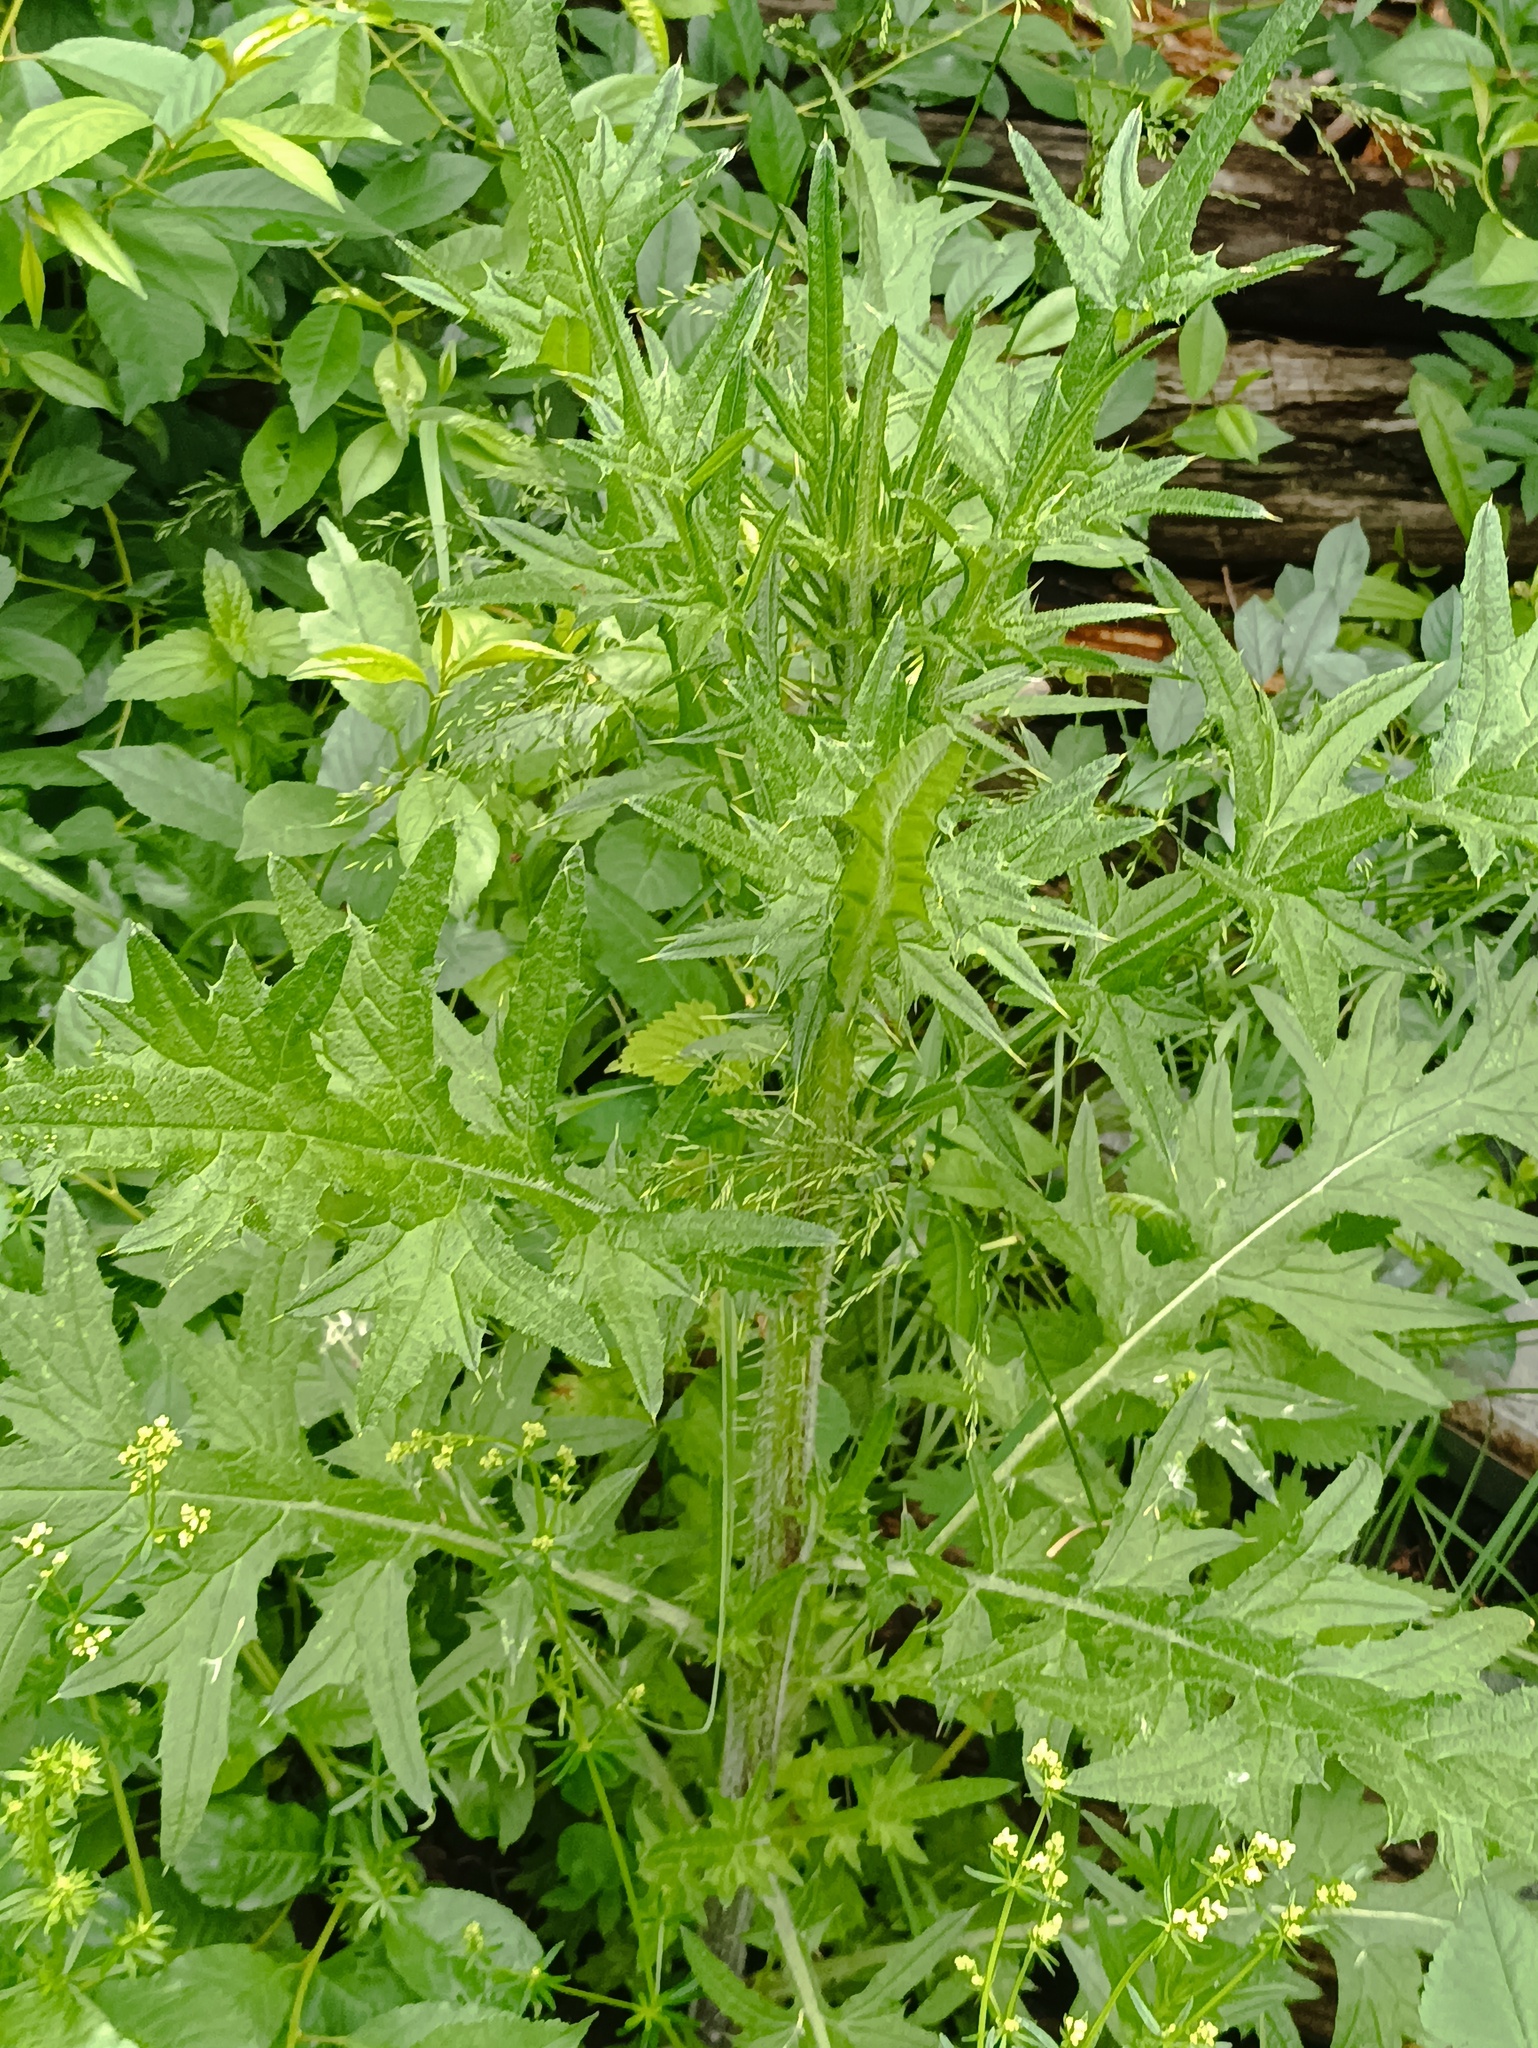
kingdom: Plantae
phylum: Tracheophyta
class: Magnoliopsida
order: Asterales
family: Asteraceae
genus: Cirsium
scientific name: Cirsium vulgare
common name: Bull thistle
